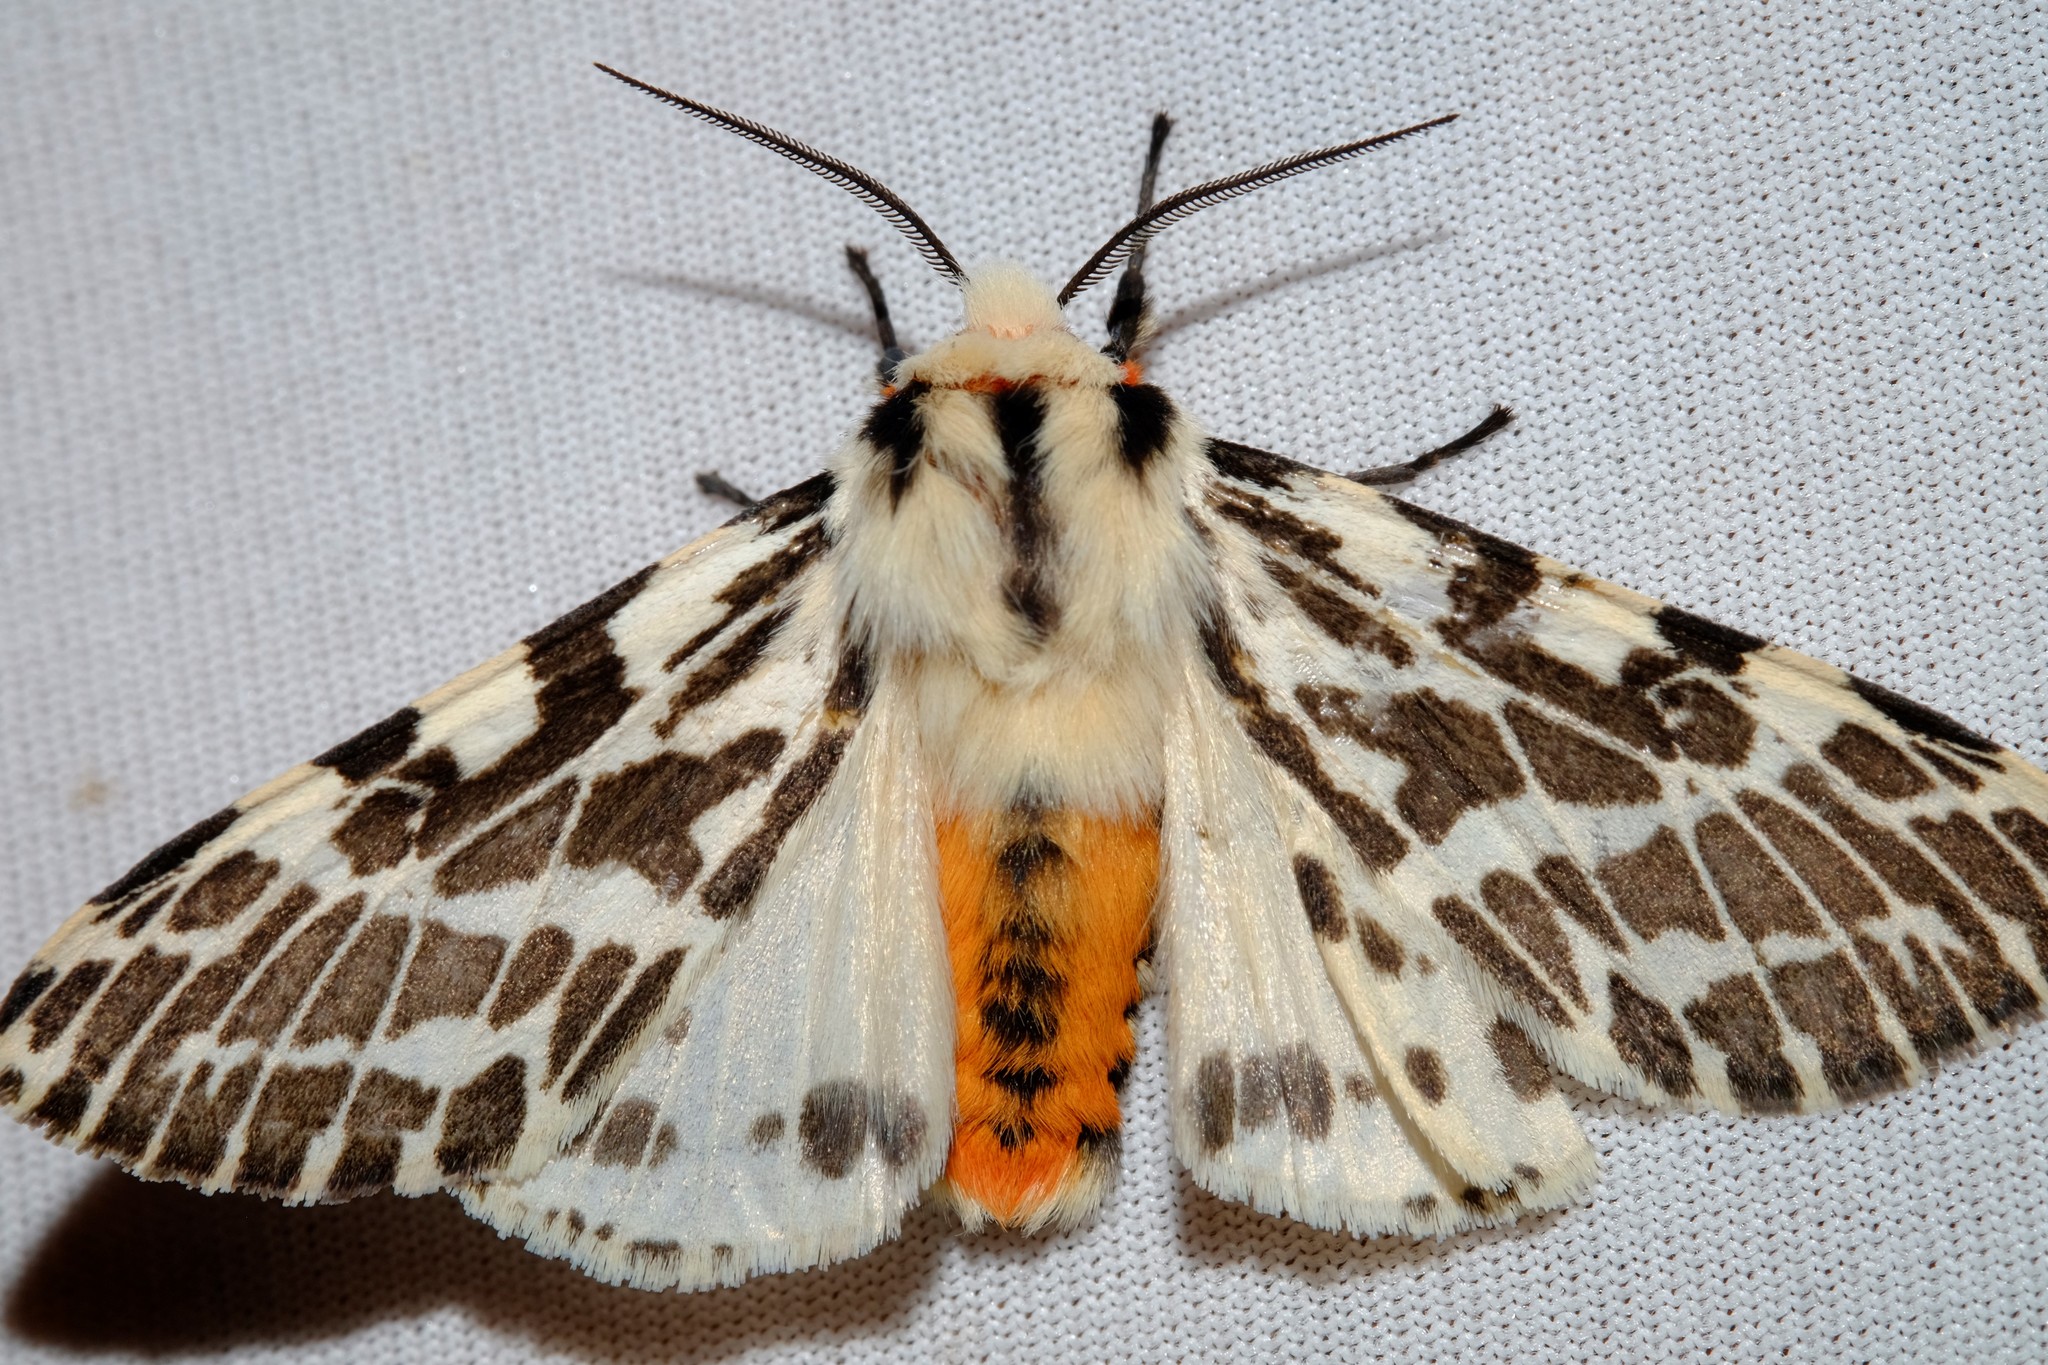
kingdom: Animalia
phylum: Arthropoda
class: Insecta
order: Lepidoptera
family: Erebidae
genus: Ardices
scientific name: Ardices glatignyi
